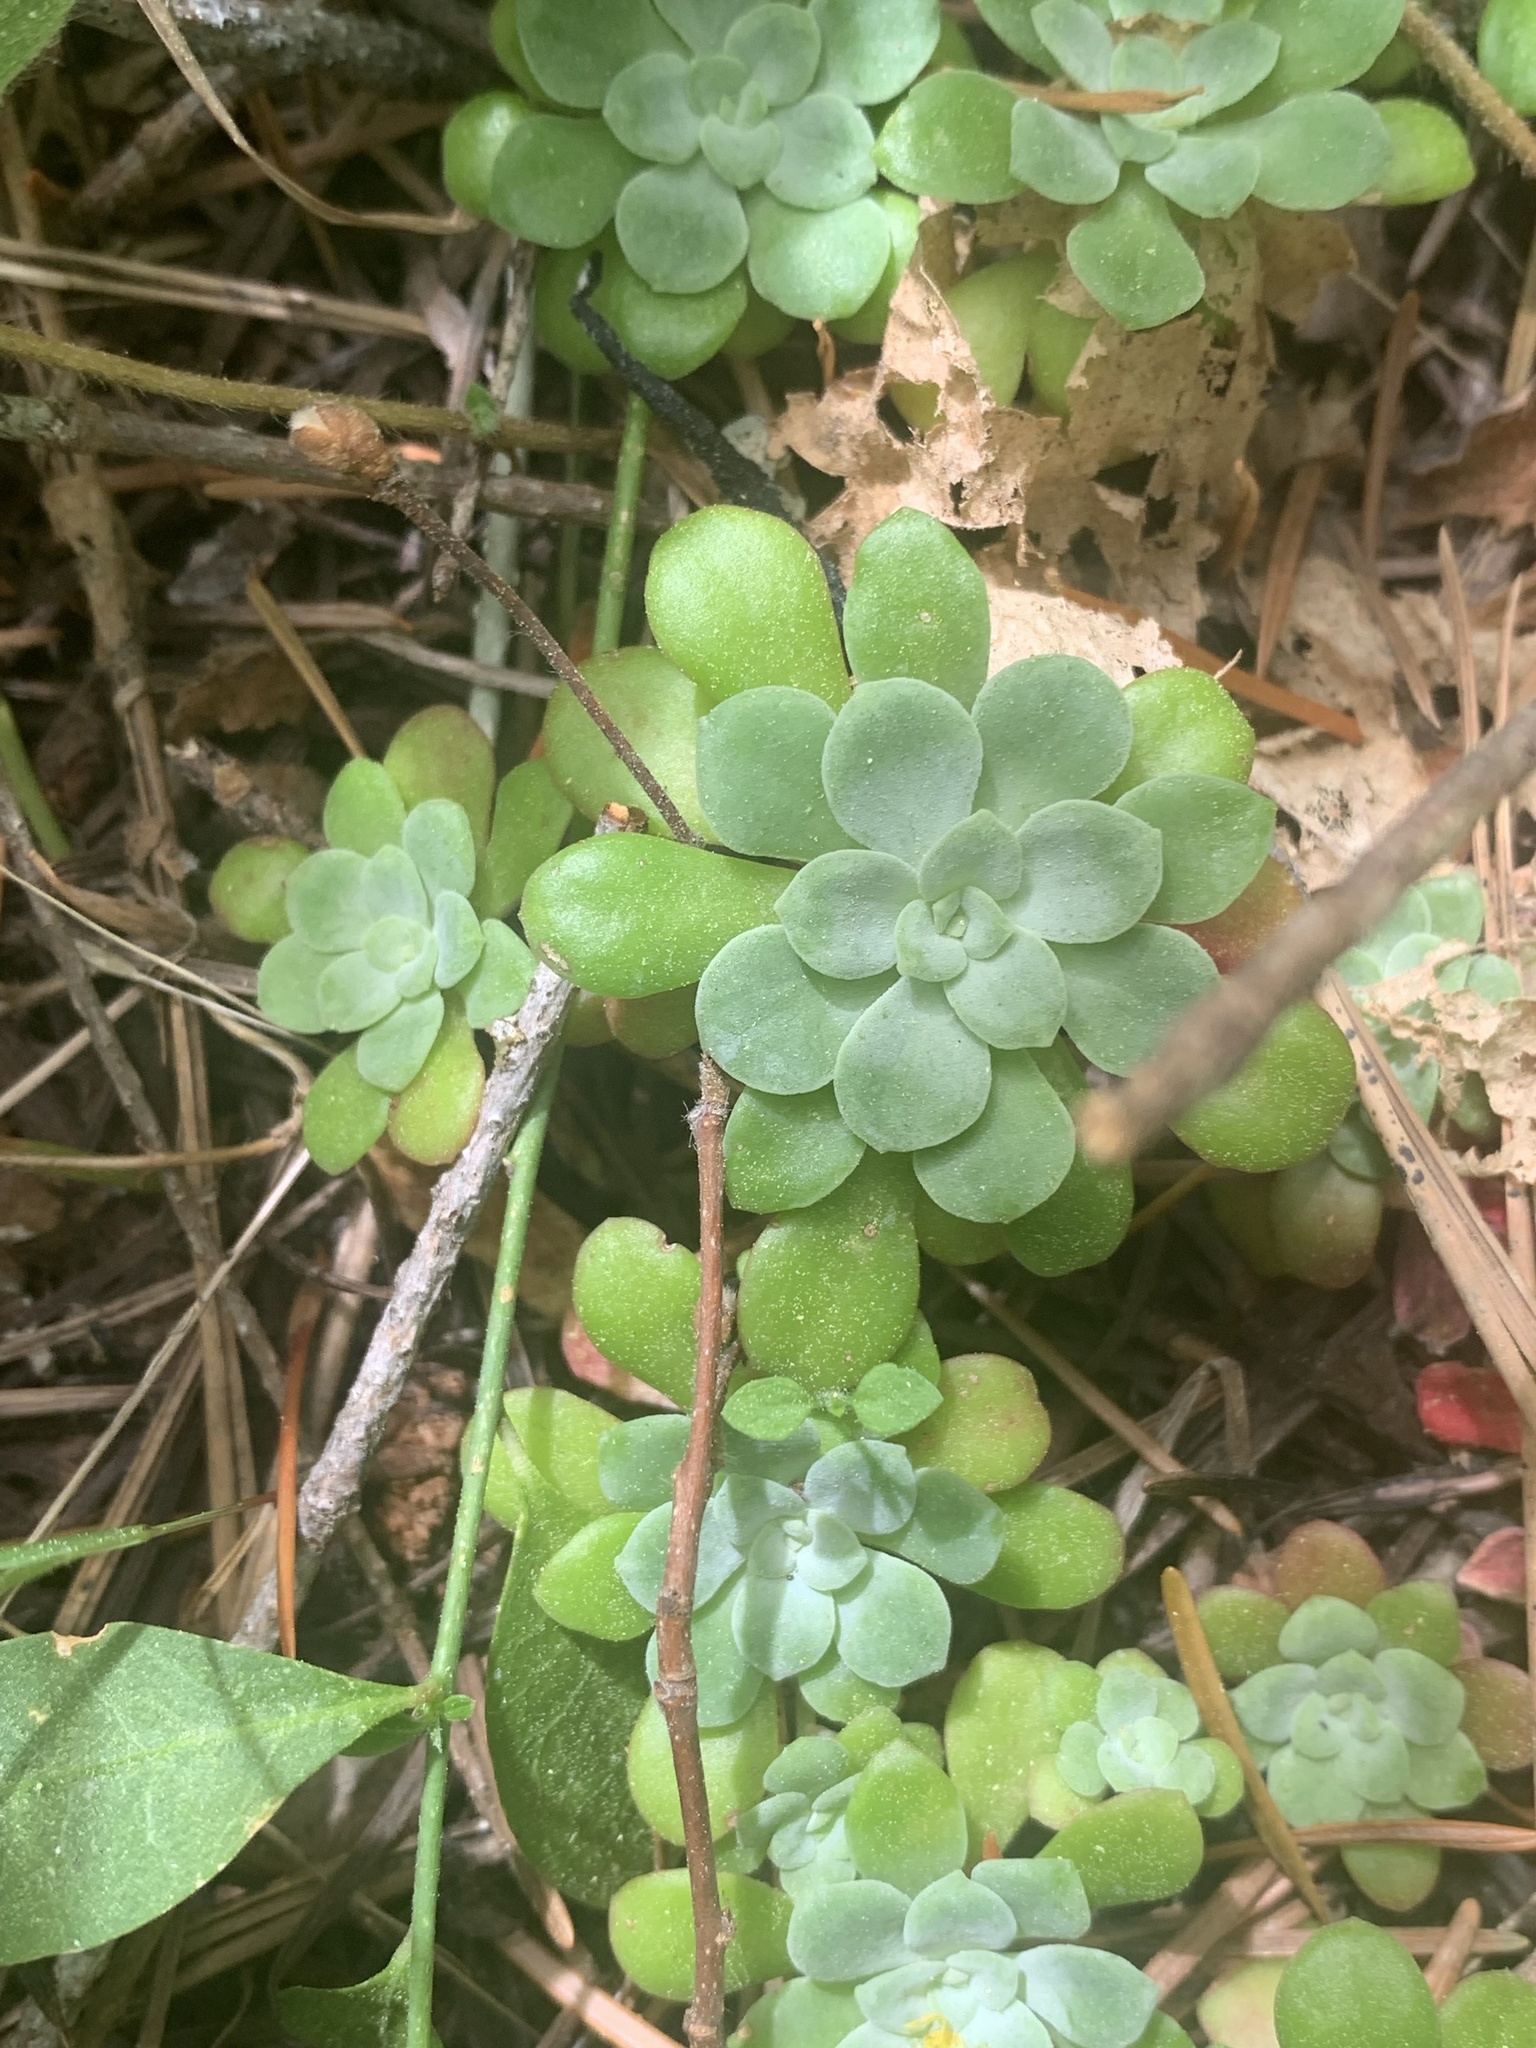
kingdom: Plantae
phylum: Tracheophyta
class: Magnoliopsida
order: Saxifragales
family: Crassulaceae
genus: Sedum
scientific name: Sedum spathulifolium
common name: Colorado stonecrop
